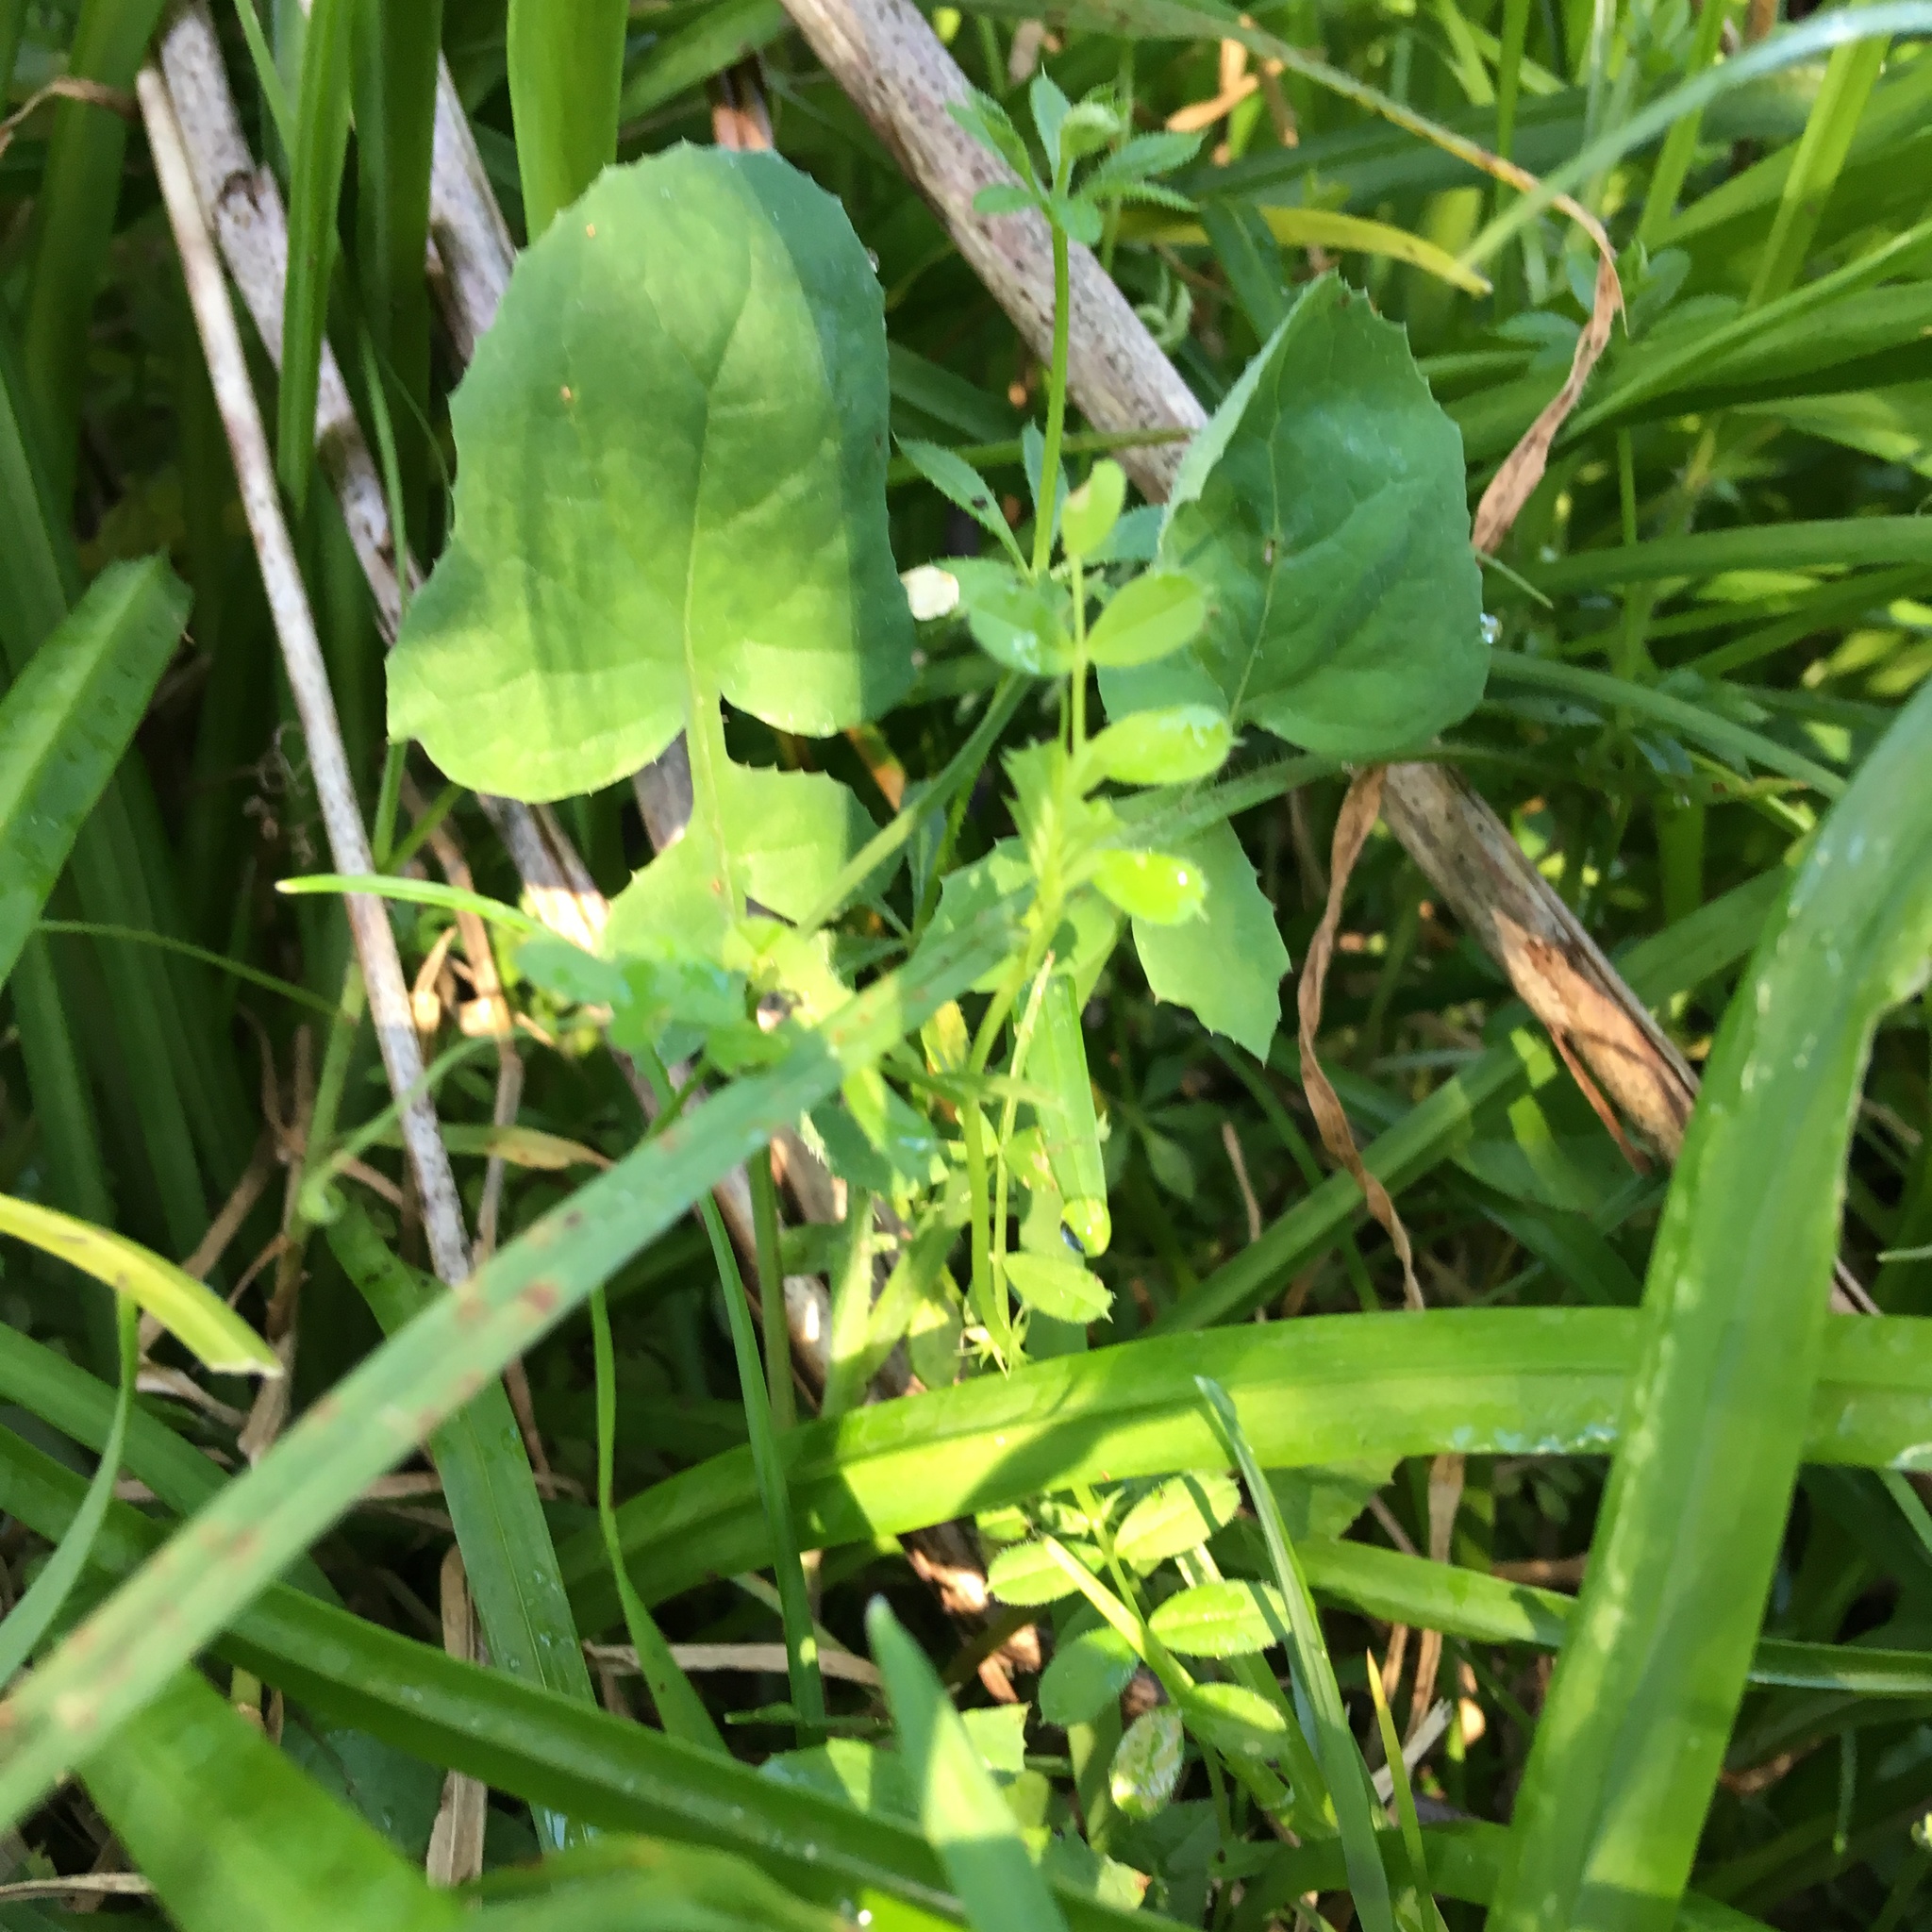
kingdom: Plantae
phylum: Tracheophyta
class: Magnoliopsida
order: Asterales
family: Asteraceae
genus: Sonchus
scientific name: Sonchus oleraceus
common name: Common sowthistle
